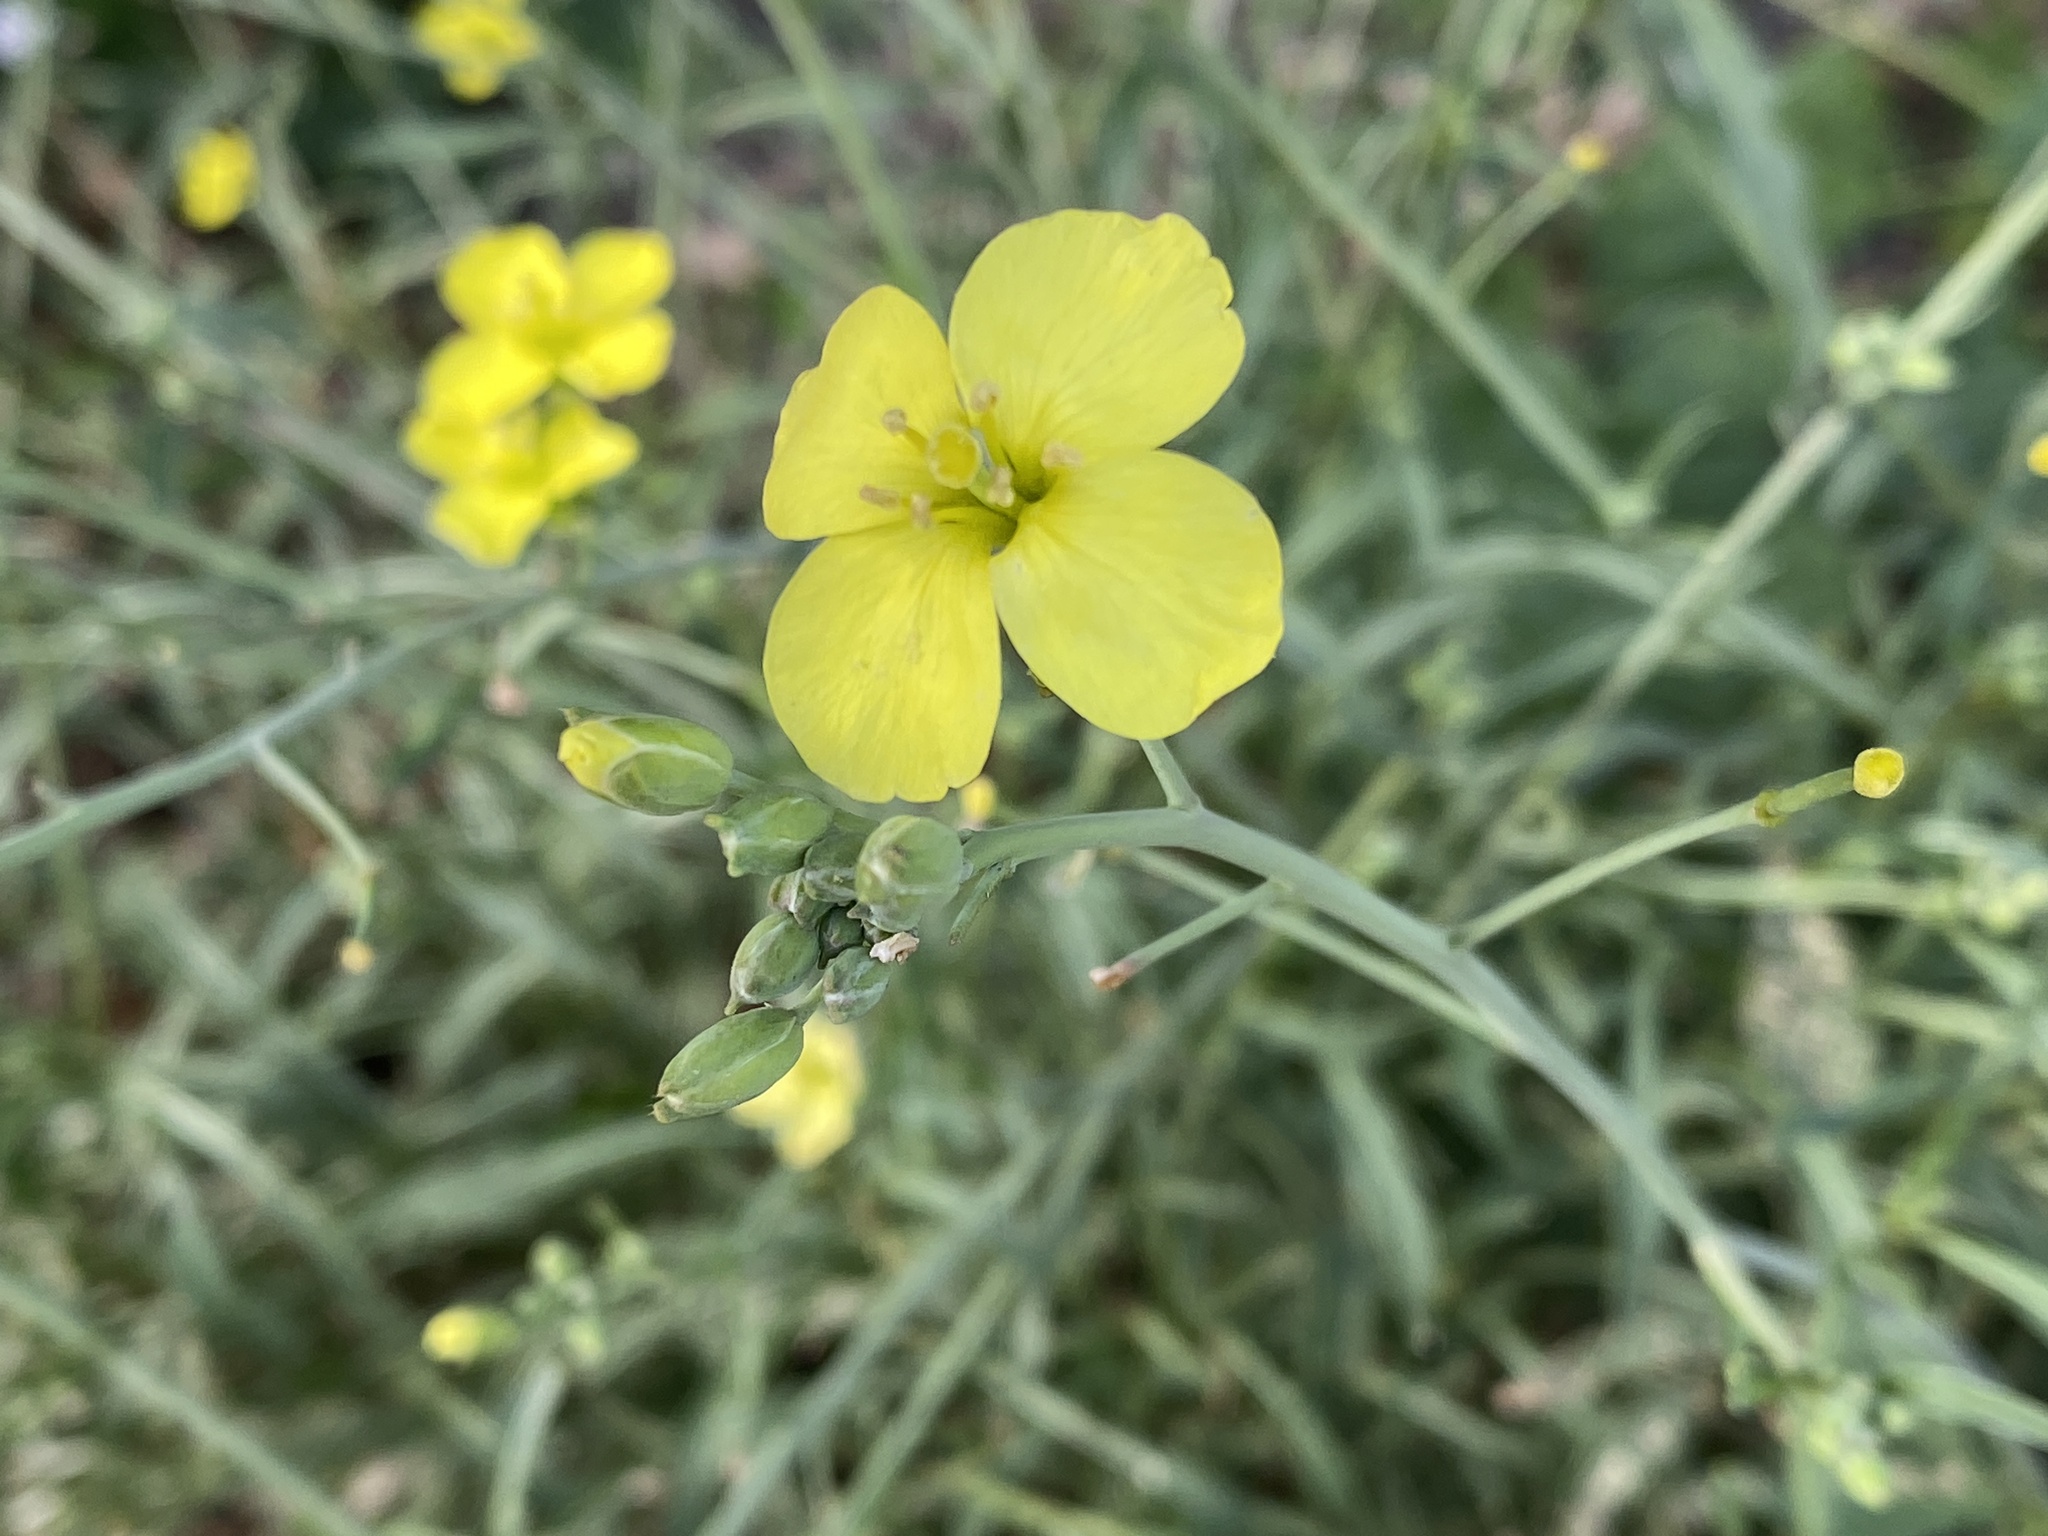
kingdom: Plantae
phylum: Tracheophyta
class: Magnoliopsida
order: Brassicales
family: Brassicaceae
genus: Diplotaxis
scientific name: Diplotaxis tenuifolia
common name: Perennial wall-rocket
